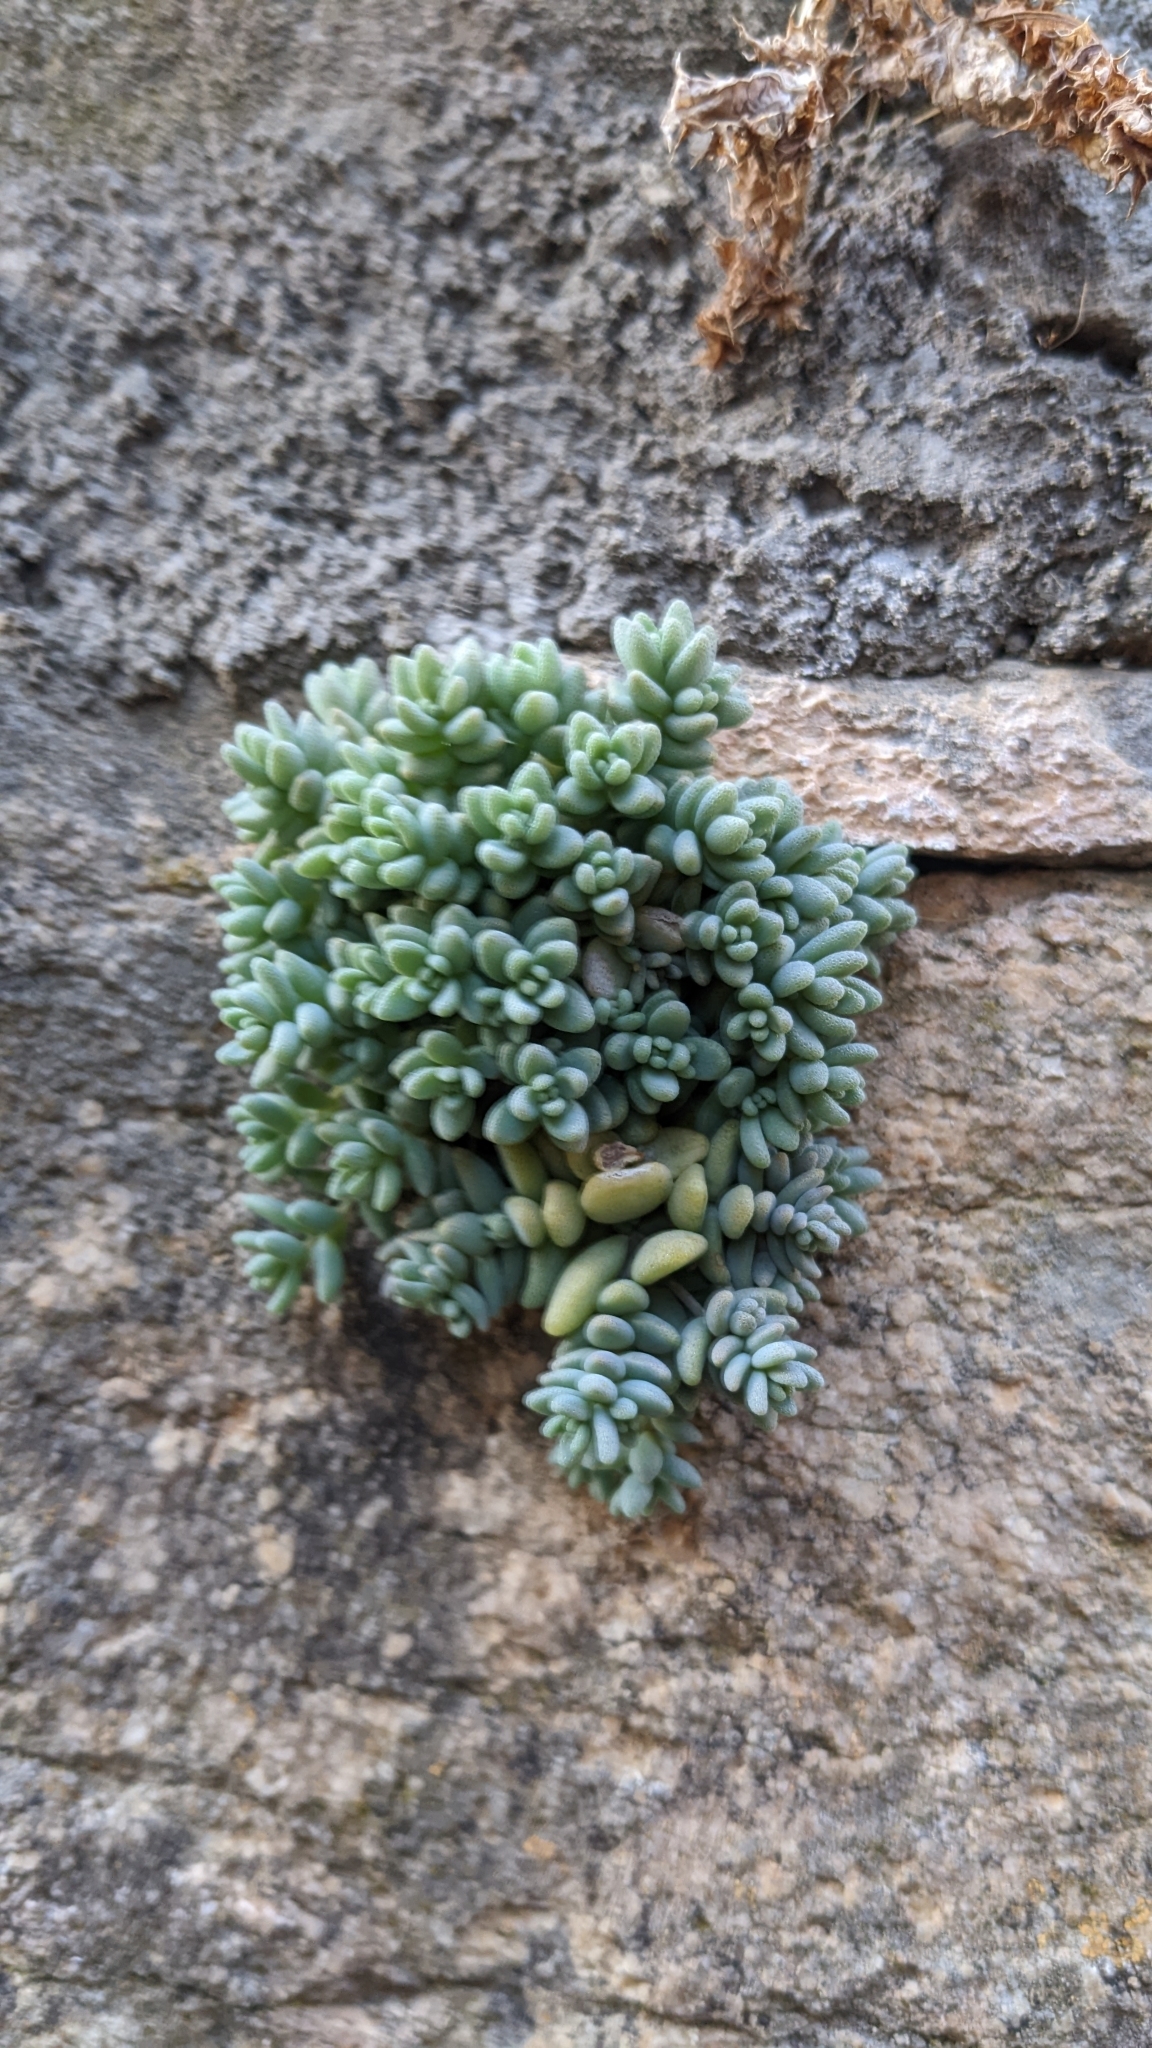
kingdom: Plantae
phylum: Tracheophyta
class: Magnoliopsida
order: Saxifragales
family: Crassulaceae
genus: Sedum
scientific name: Sedum dasyphyllum
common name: Thick-leaf stonecrop
